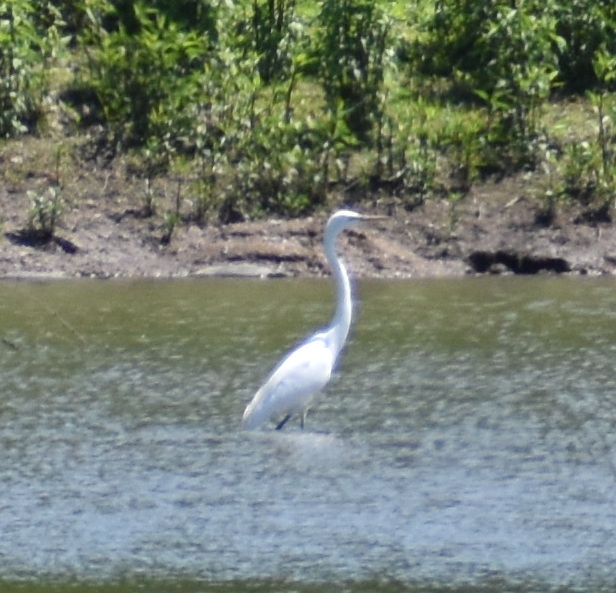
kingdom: Animalia
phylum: Chordata
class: Aves
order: Pelecaniformes
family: Ardeidae
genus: Ardea
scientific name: Ardea alba
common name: Great egret
